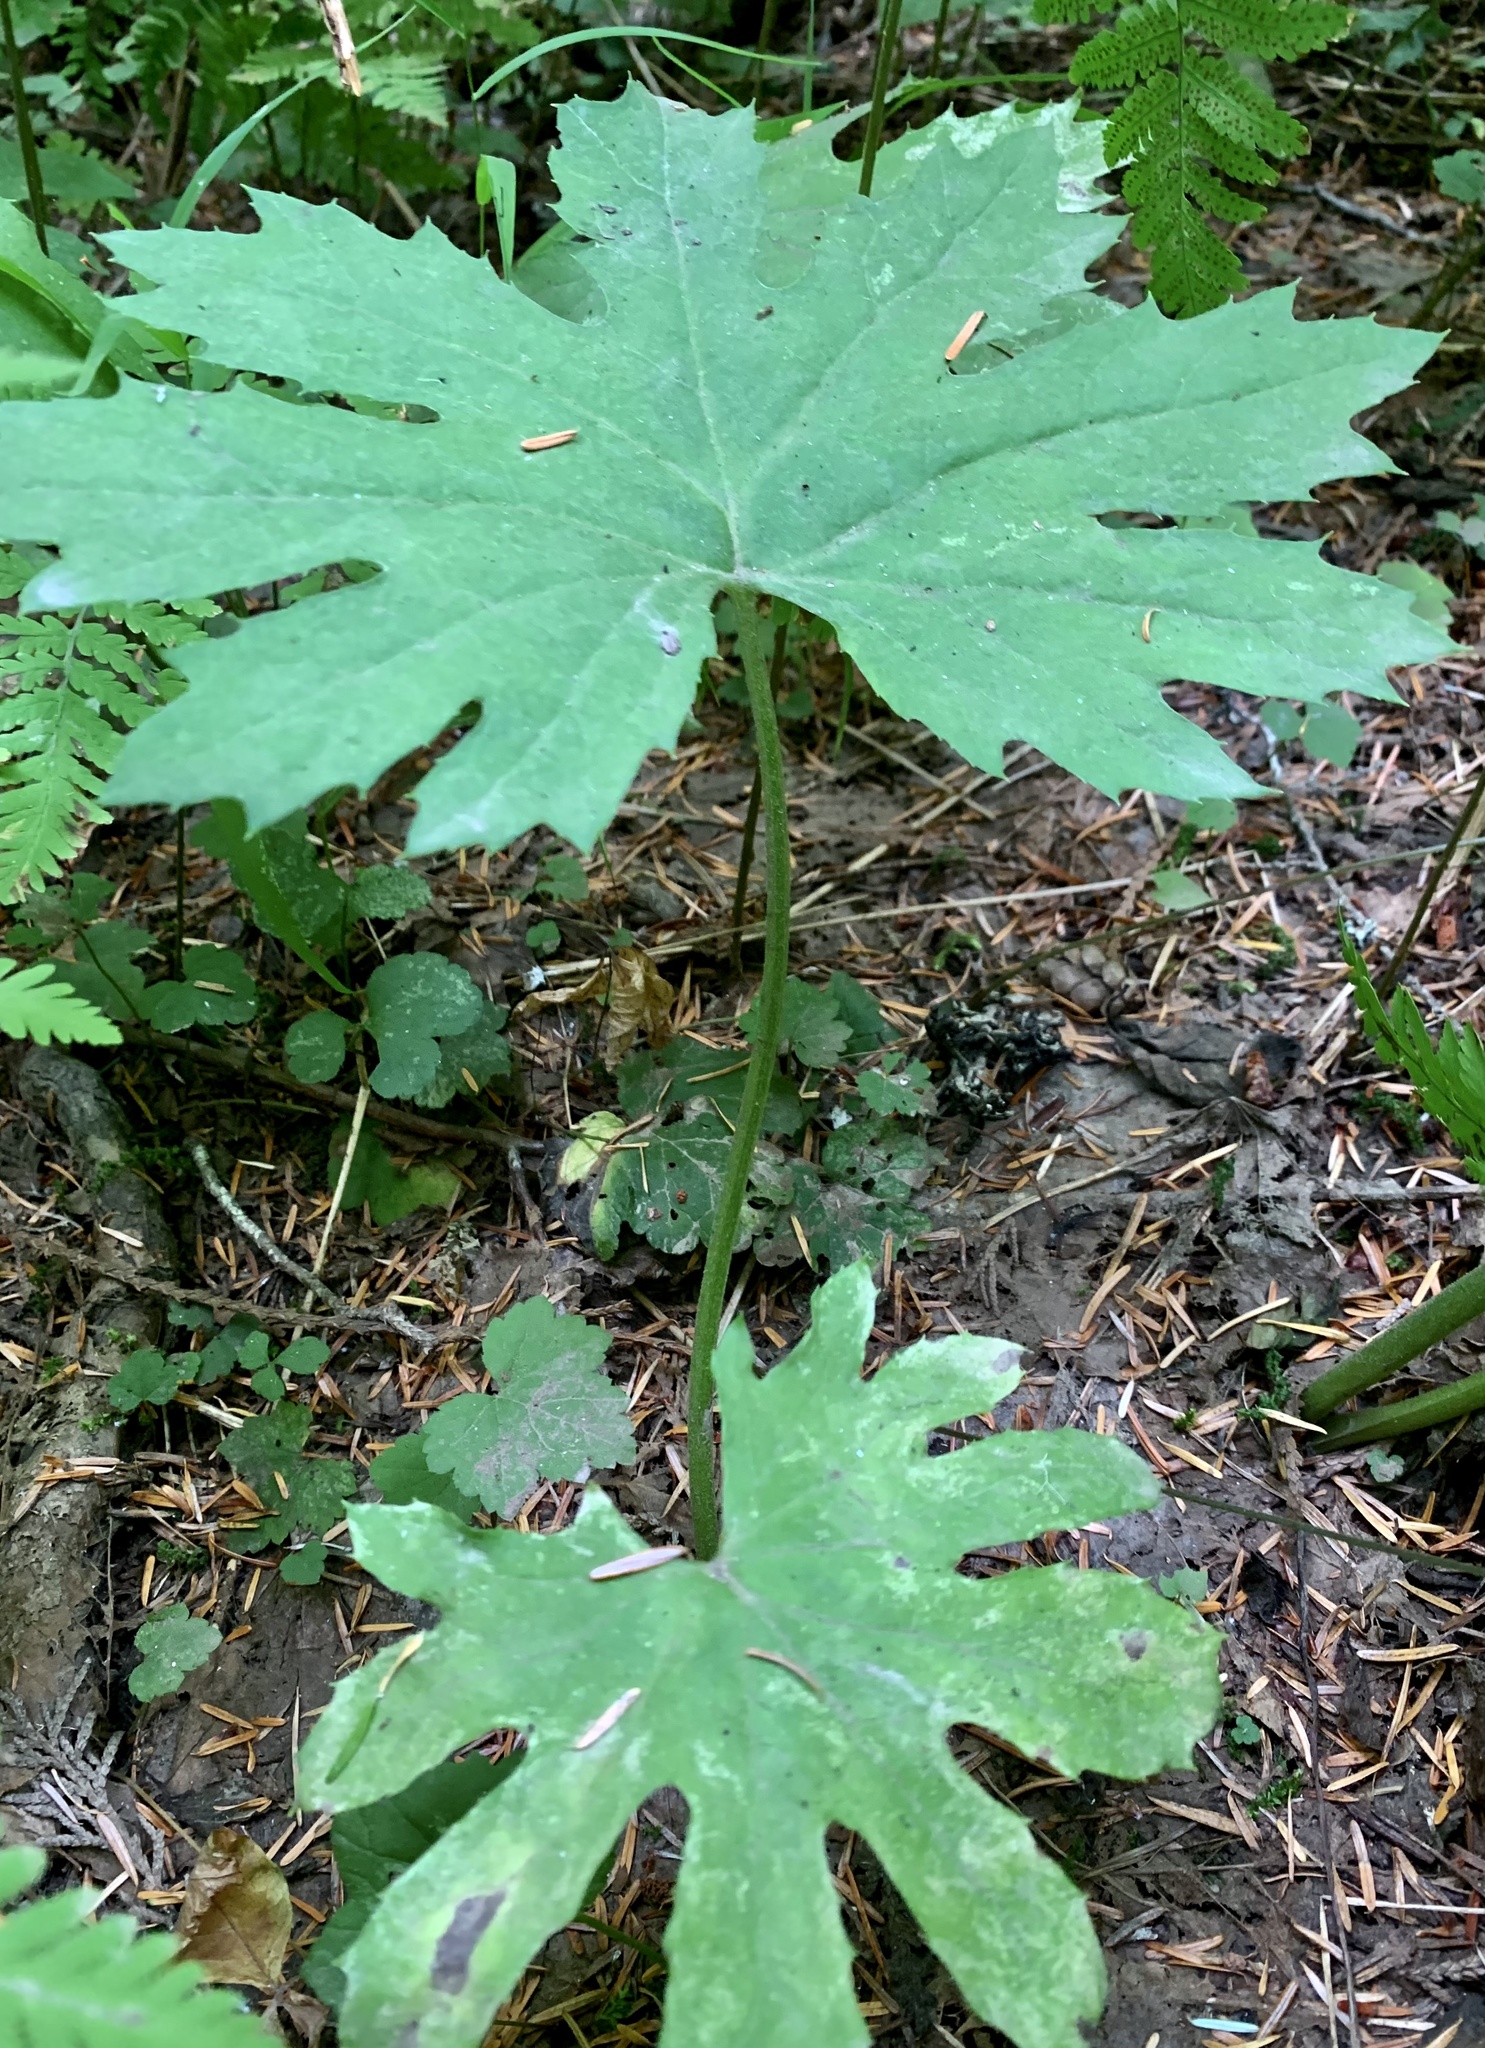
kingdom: Plantae
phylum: Tracheophyta
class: Magnoliopsida
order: Asterales
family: Asteraceae
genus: Petasites
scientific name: Petasites frigidus
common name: Arctic butterbur
